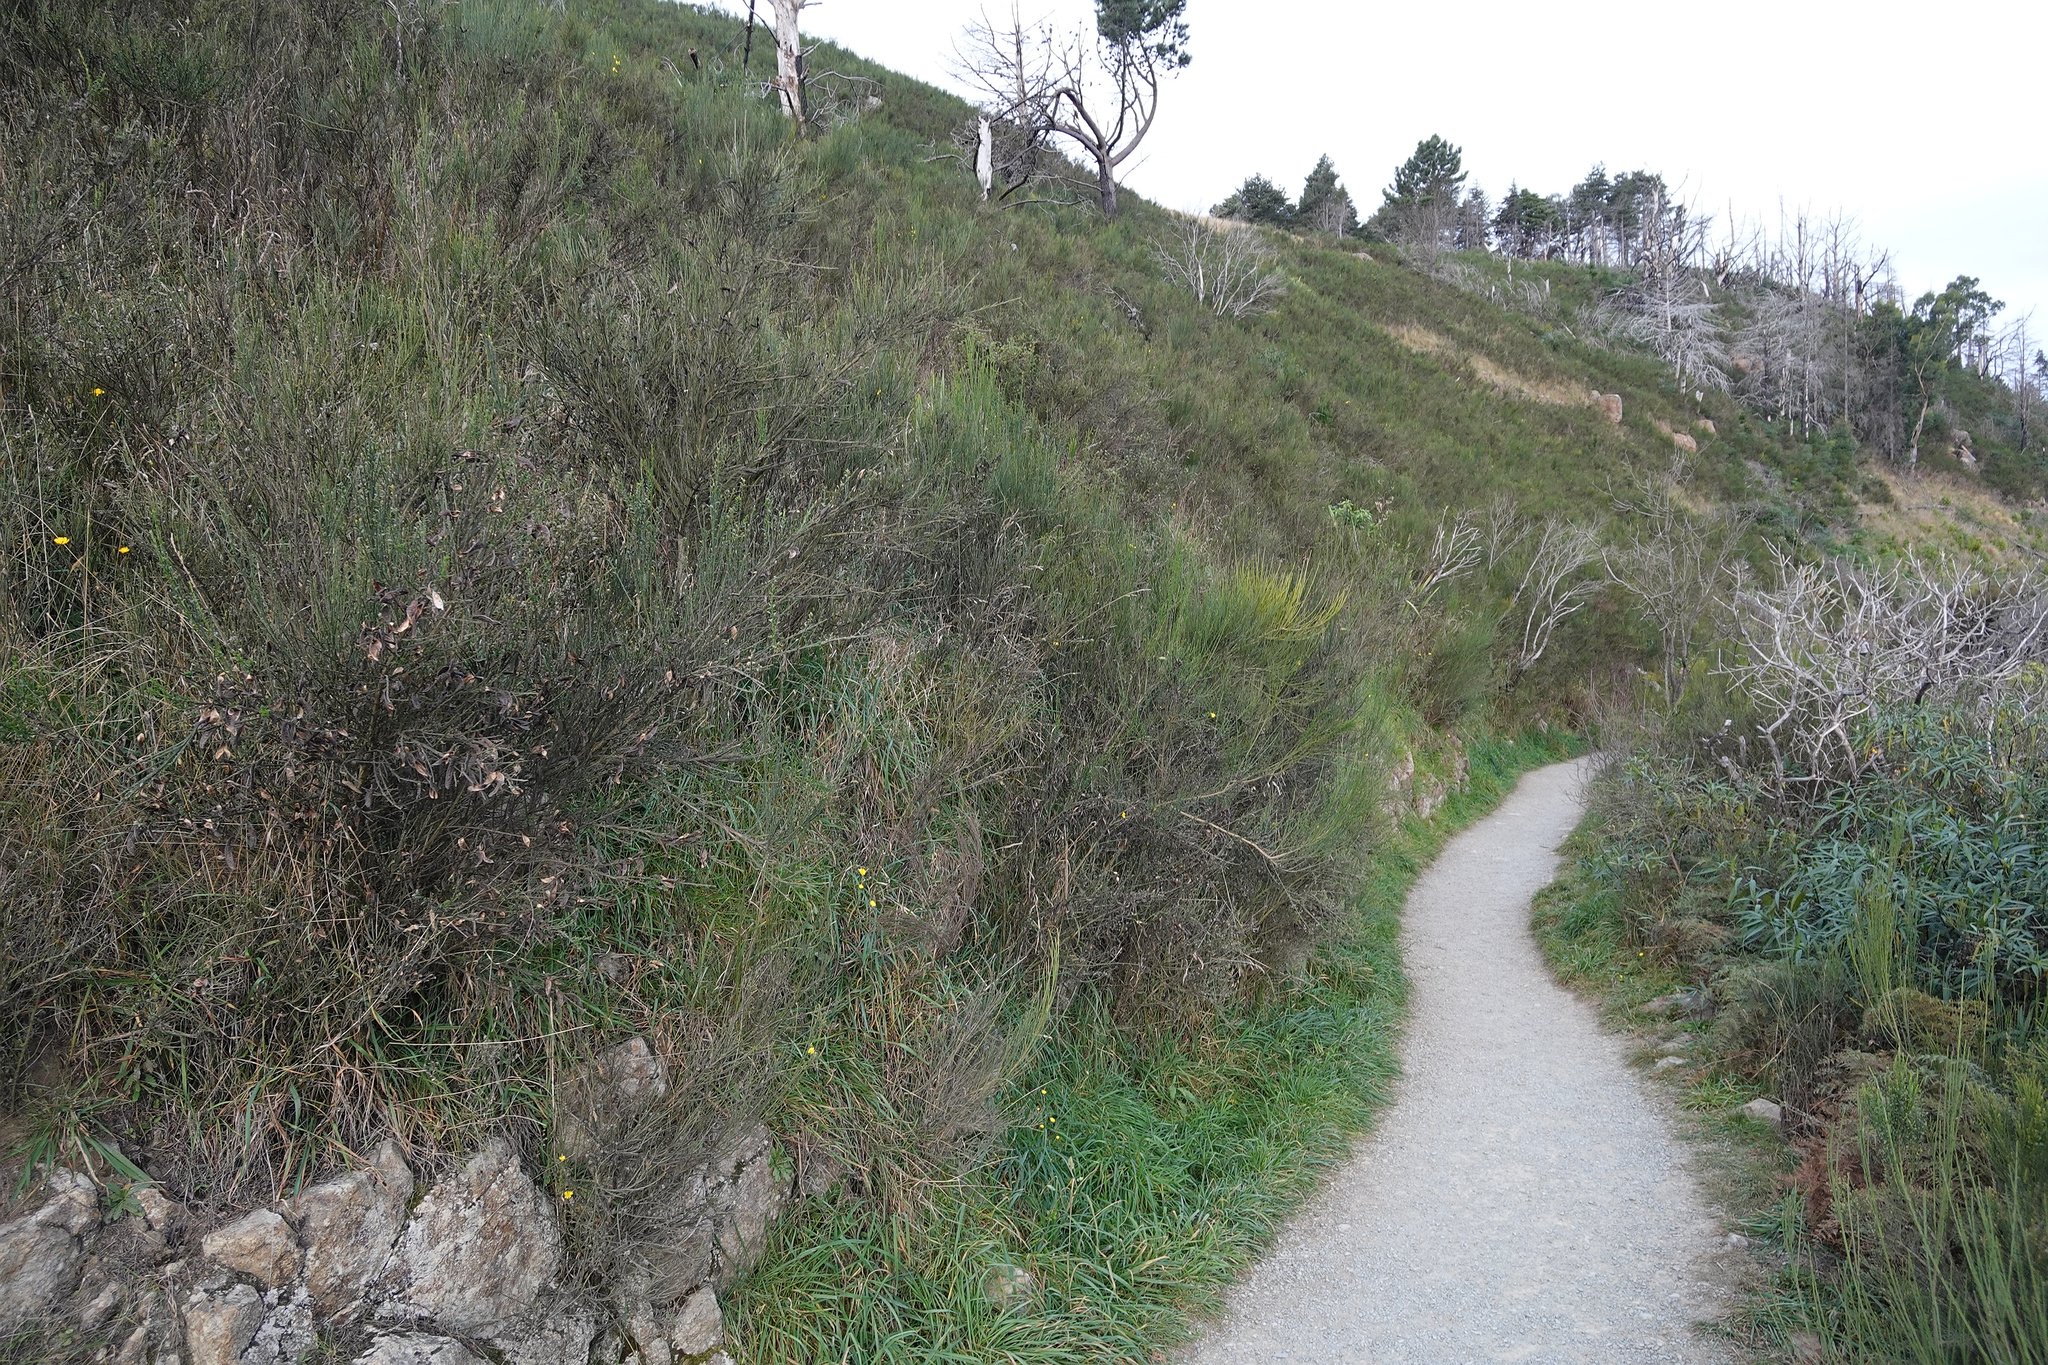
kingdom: Plantae
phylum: Tracheophyta
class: Magnoliopsida
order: Fabales
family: Fabaceae
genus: Cytisus
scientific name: Cytisus scoparius
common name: Scotch broom
